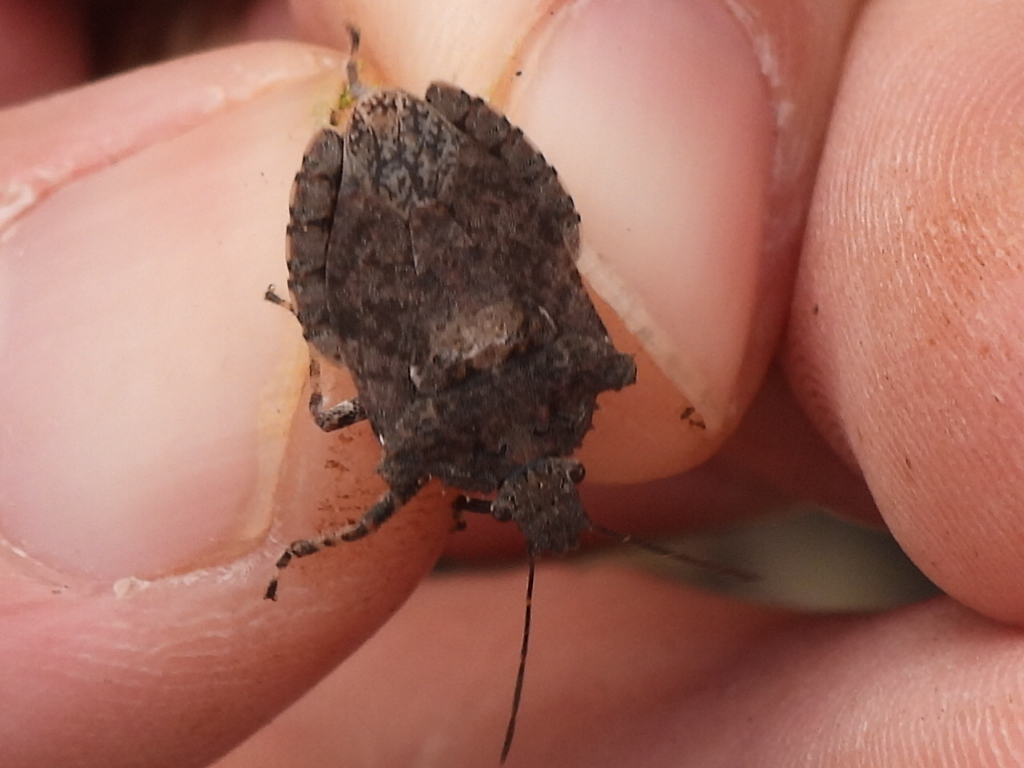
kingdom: Animalia
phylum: Arthropoda
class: Insecta
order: Hemiptera
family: Pentatomidae
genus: Brochymena
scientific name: Brochymena arborea
